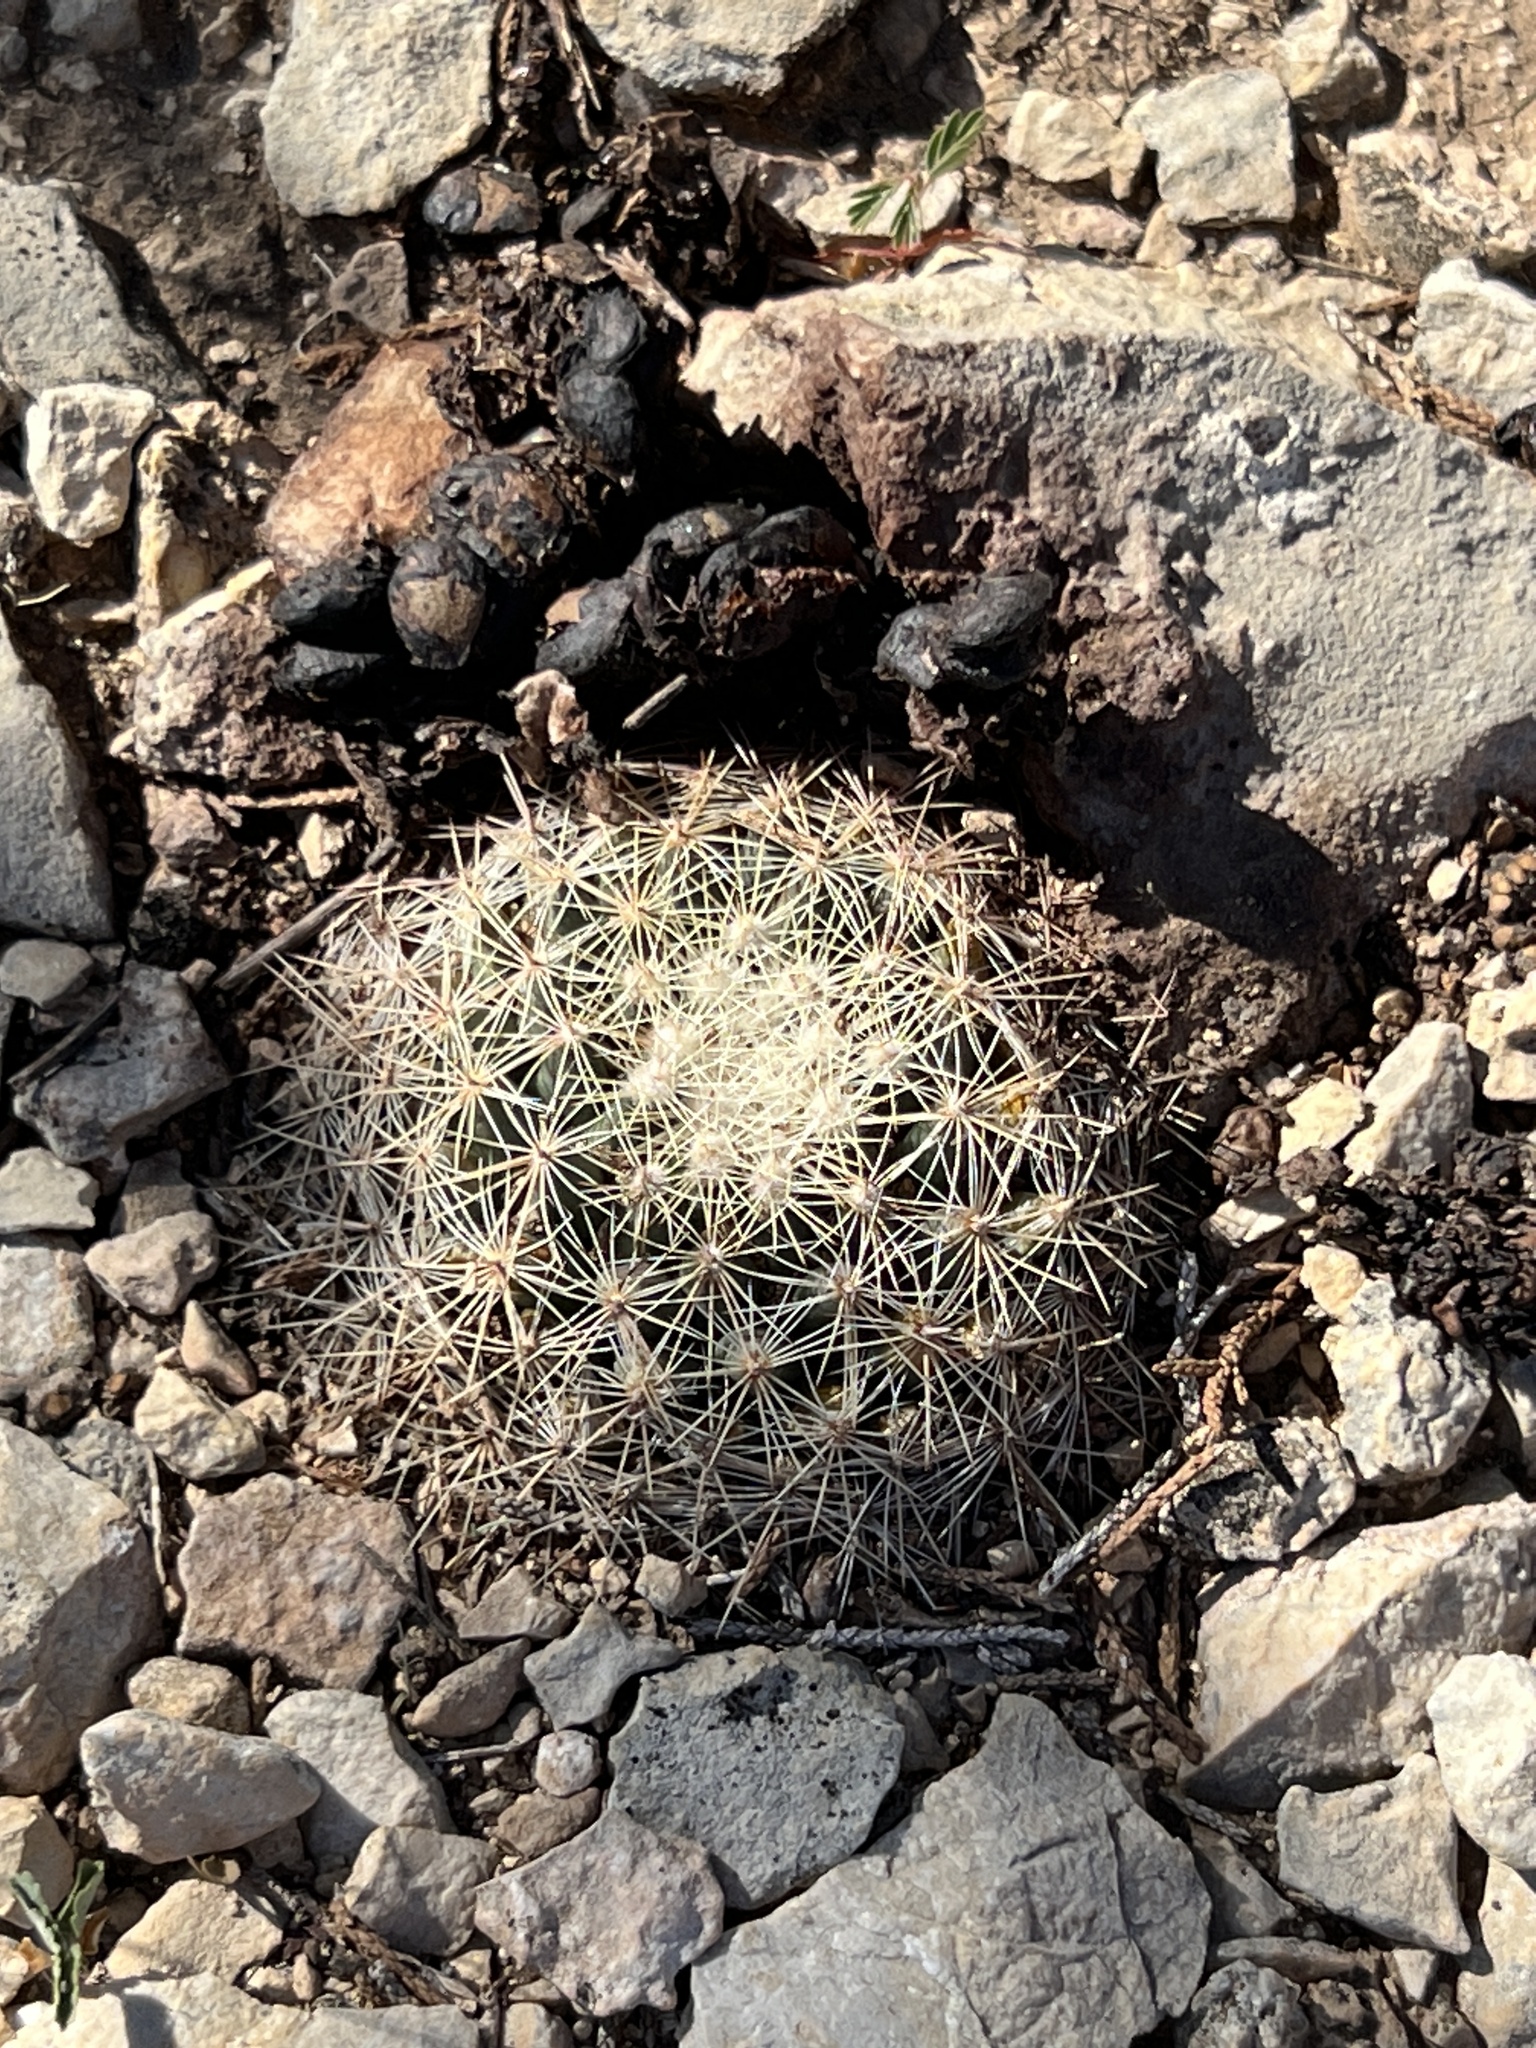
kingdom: Plantae
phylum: Tracheophyta
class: Magnoliopsida
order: Caryophyllales
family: Cactaceae
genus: Mammillaria
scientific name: Mammillaria heyderi
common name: Little nipple cactus
